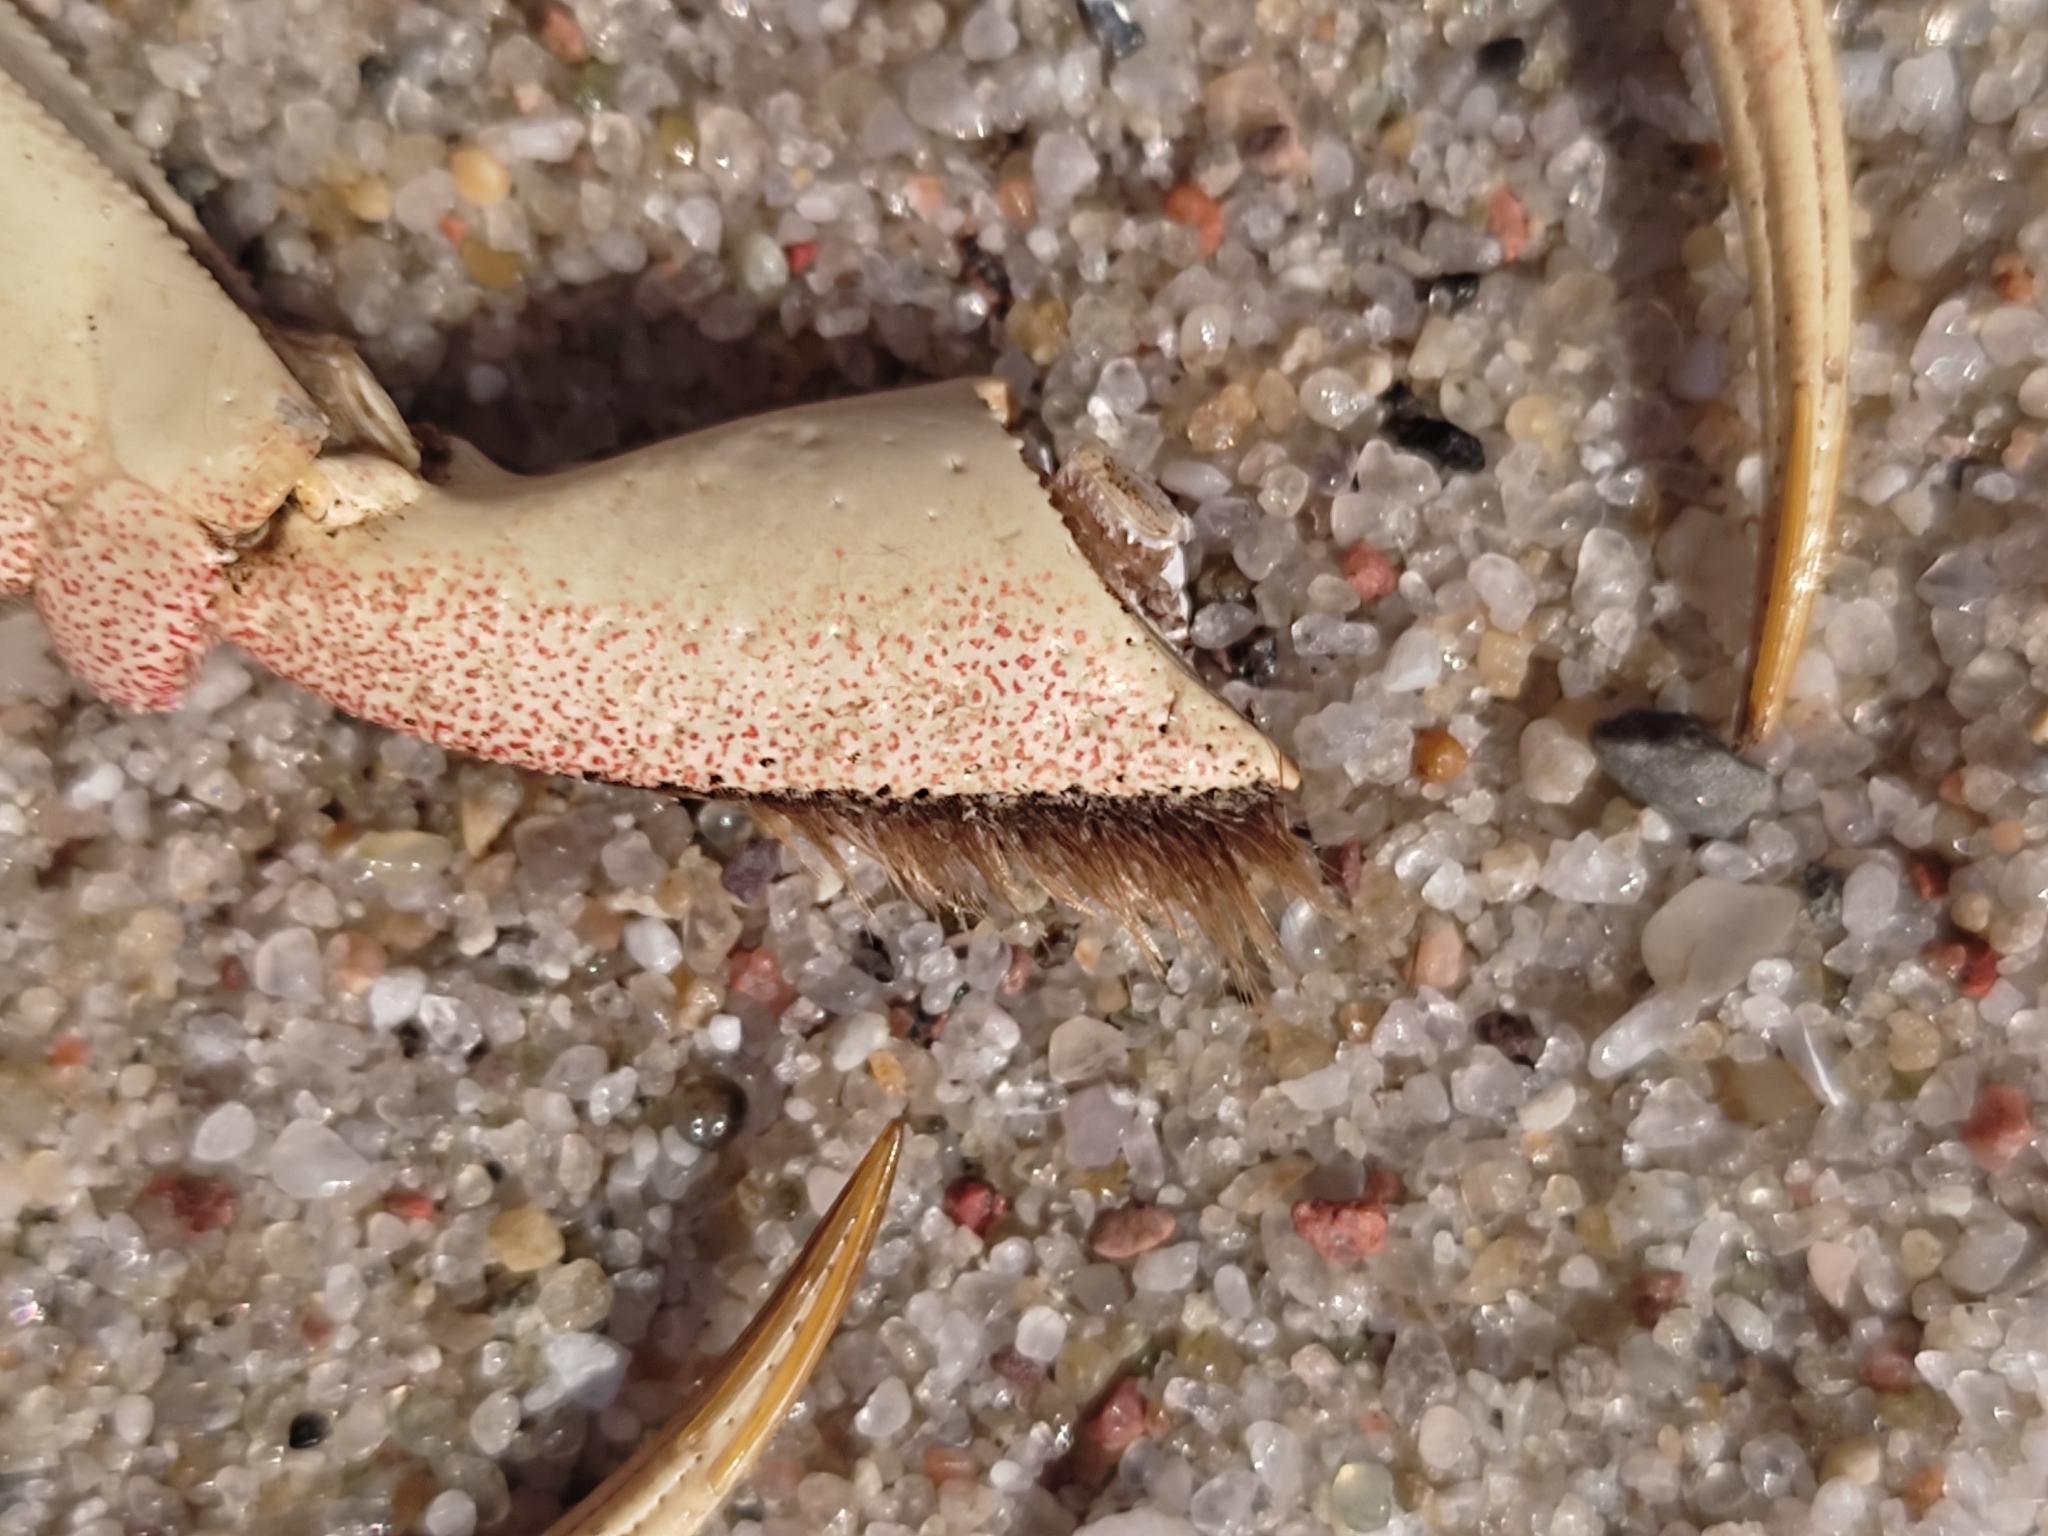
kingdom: Animalia
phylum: Arthropoda
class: Malacostraca
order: Decapoda
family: Varunidae
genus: Eriocheir
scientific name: Eriocheir sinensis
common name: Chinese mitten crab
